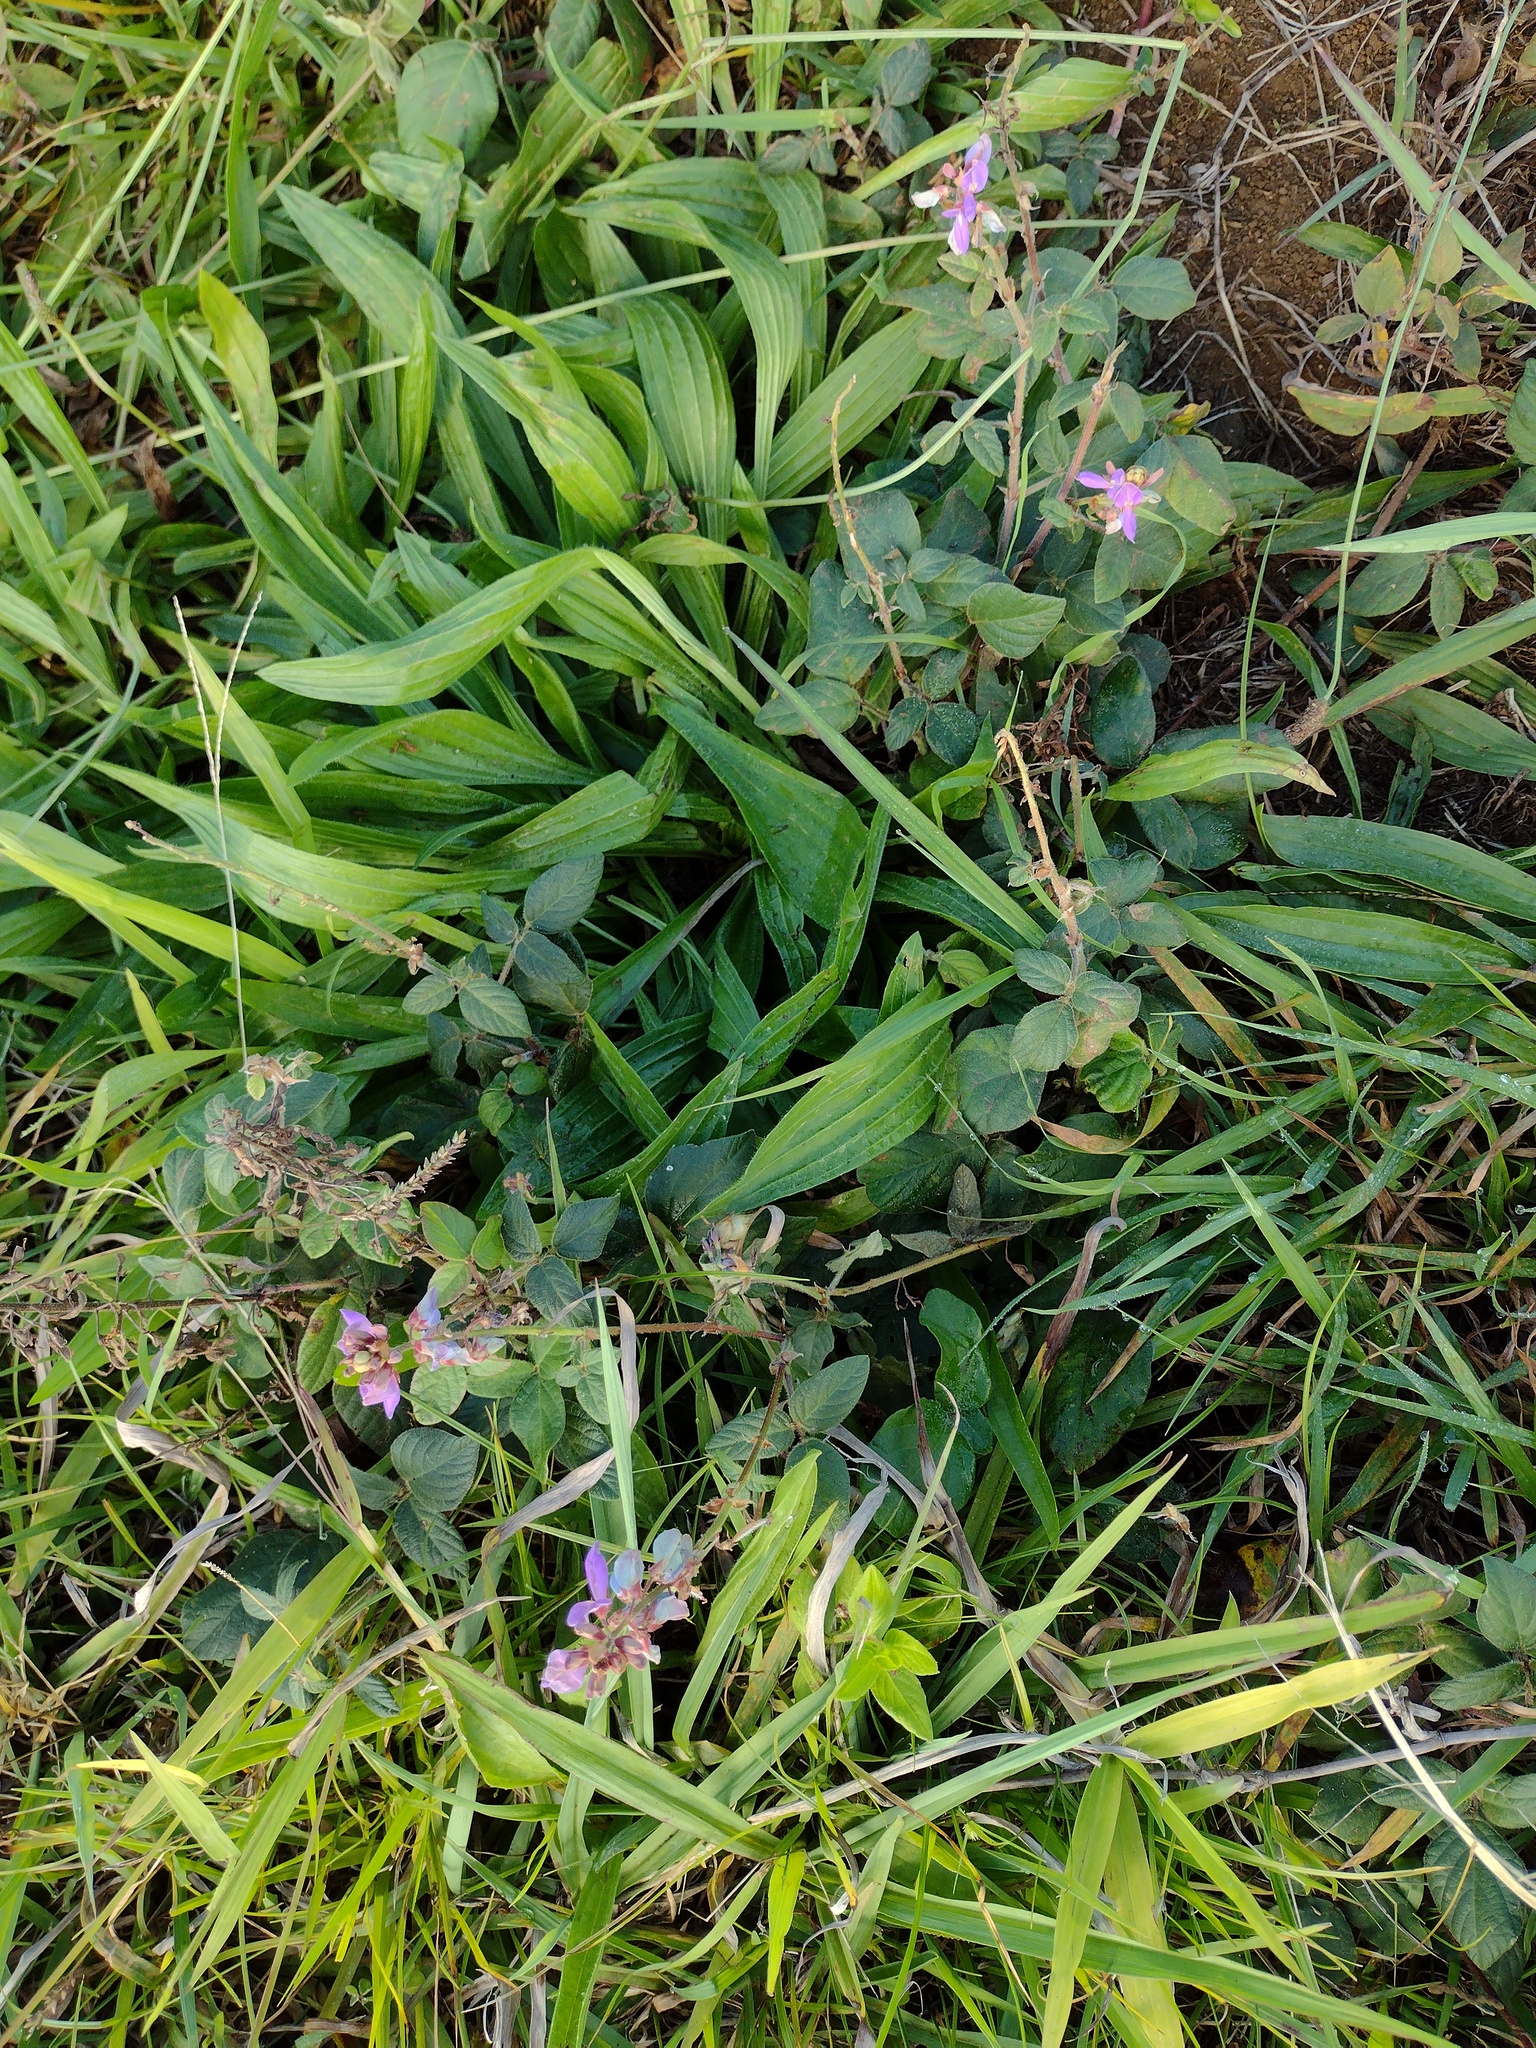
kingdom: Plantae
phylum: Tracheophyta
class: Magnoliopsida
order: Lamiales
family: Plantaginaceae
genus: Plantago
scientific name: Plantago lanceolata
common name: Ribwort plantain
